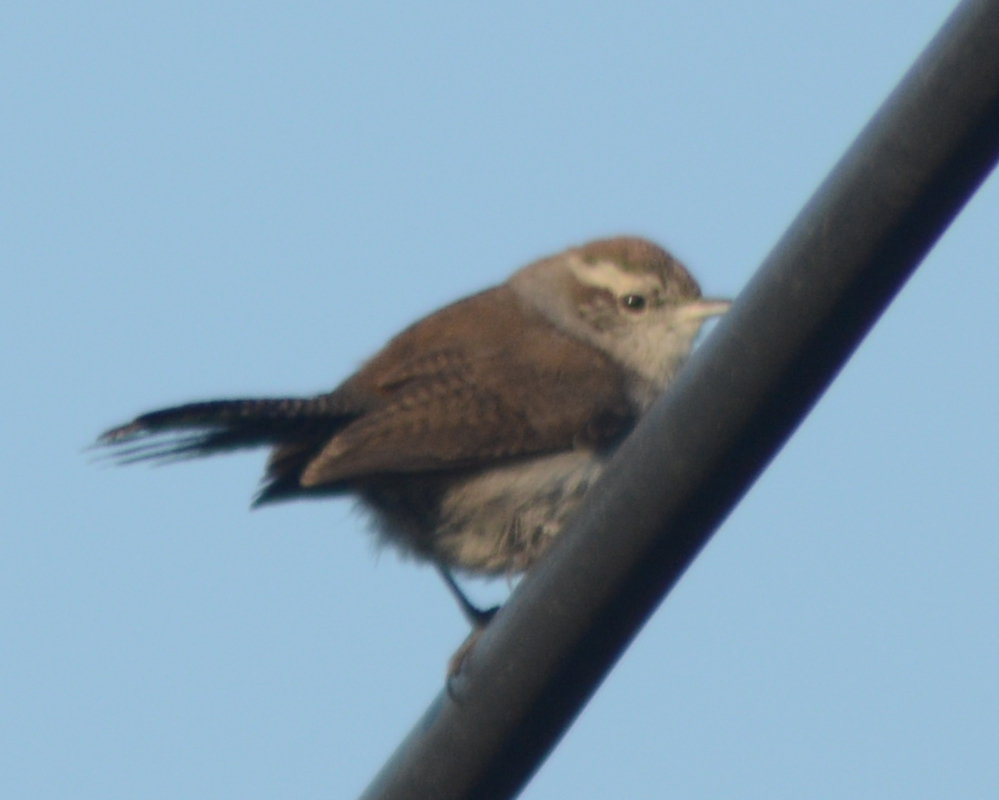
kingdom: Animalia
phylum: Chordata
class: Aves
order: Passeriformes
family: Troglodytidae
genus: Thryomanes
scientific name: Thryomanes bewickii
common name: Bewick's wren
